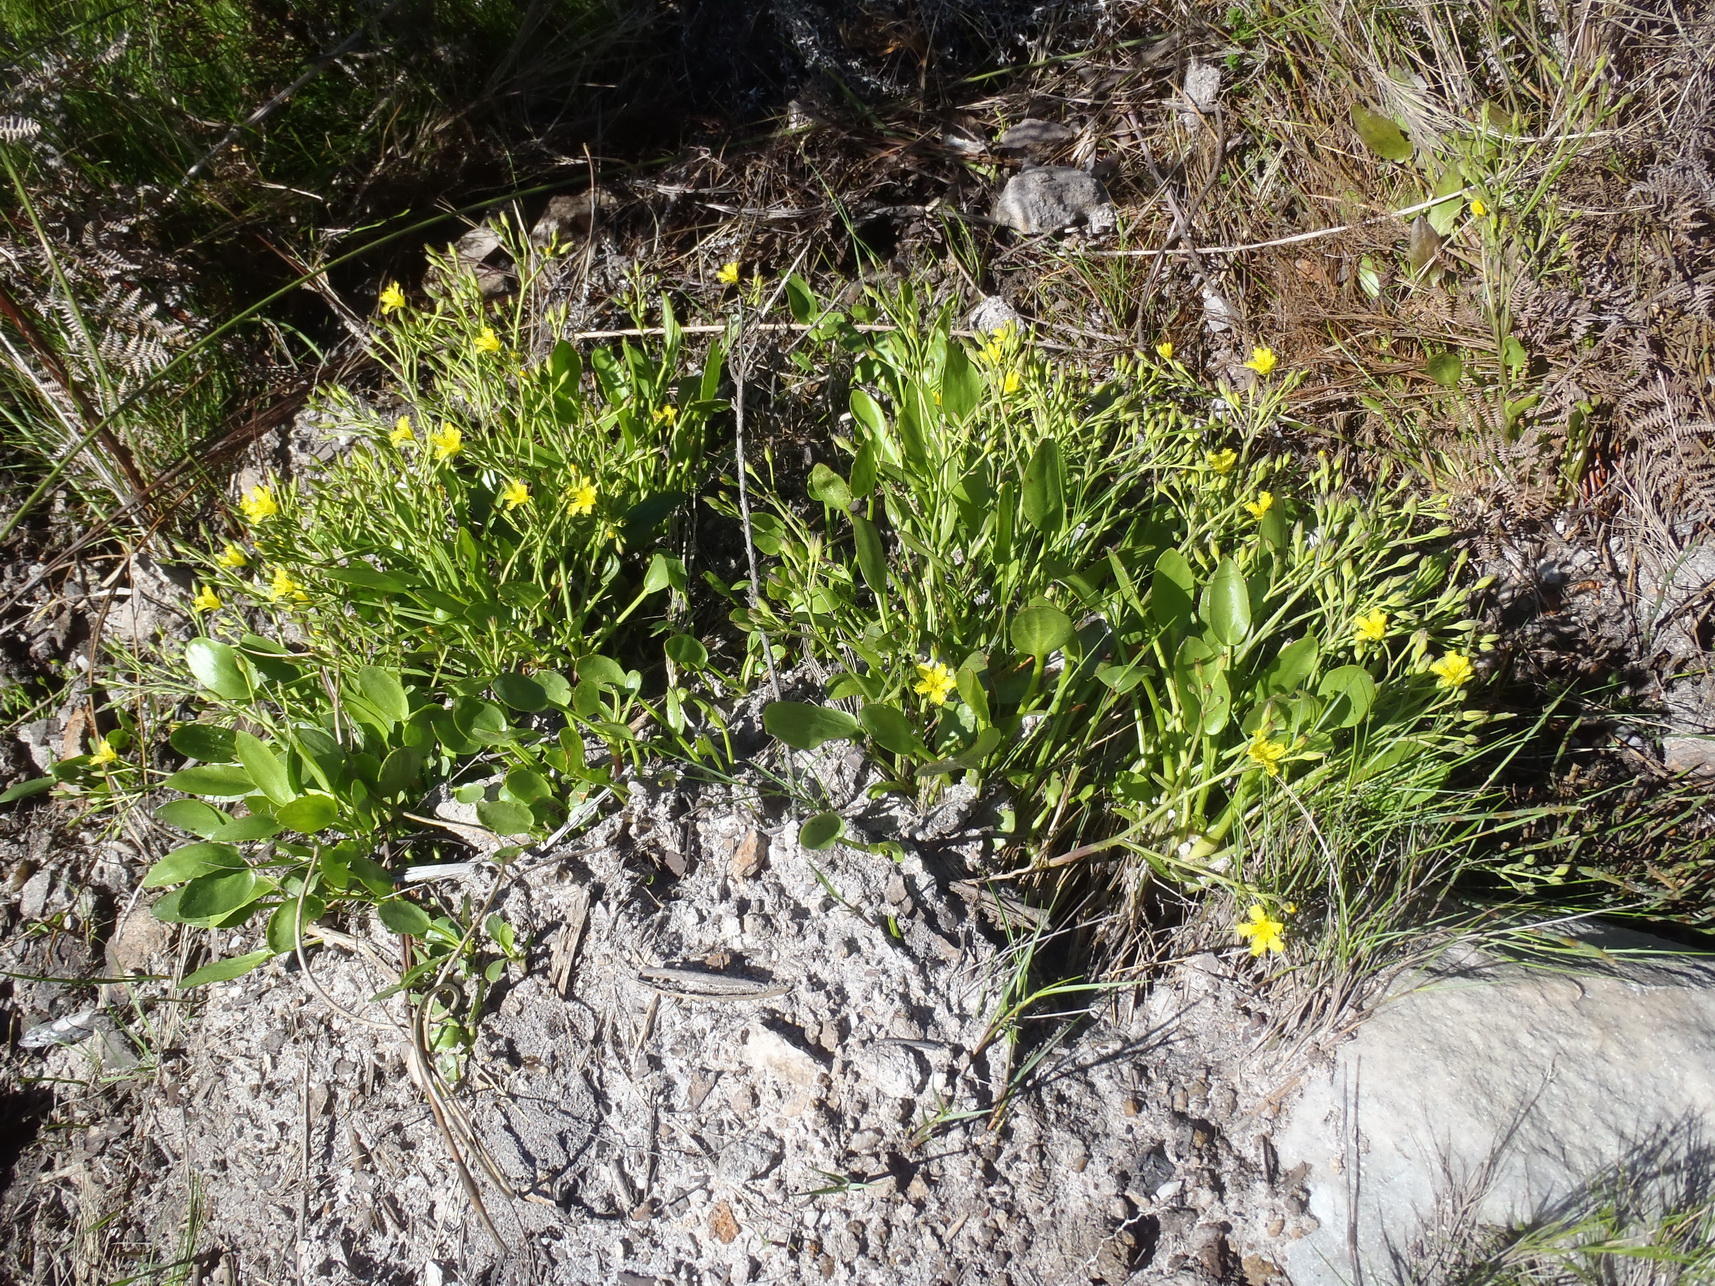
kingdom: Plantae
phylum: Tracheophyta
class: Magnoliopsida
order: Asterales
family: Menyanthaceae
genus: Villarsia
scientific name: Villarsia capensis
